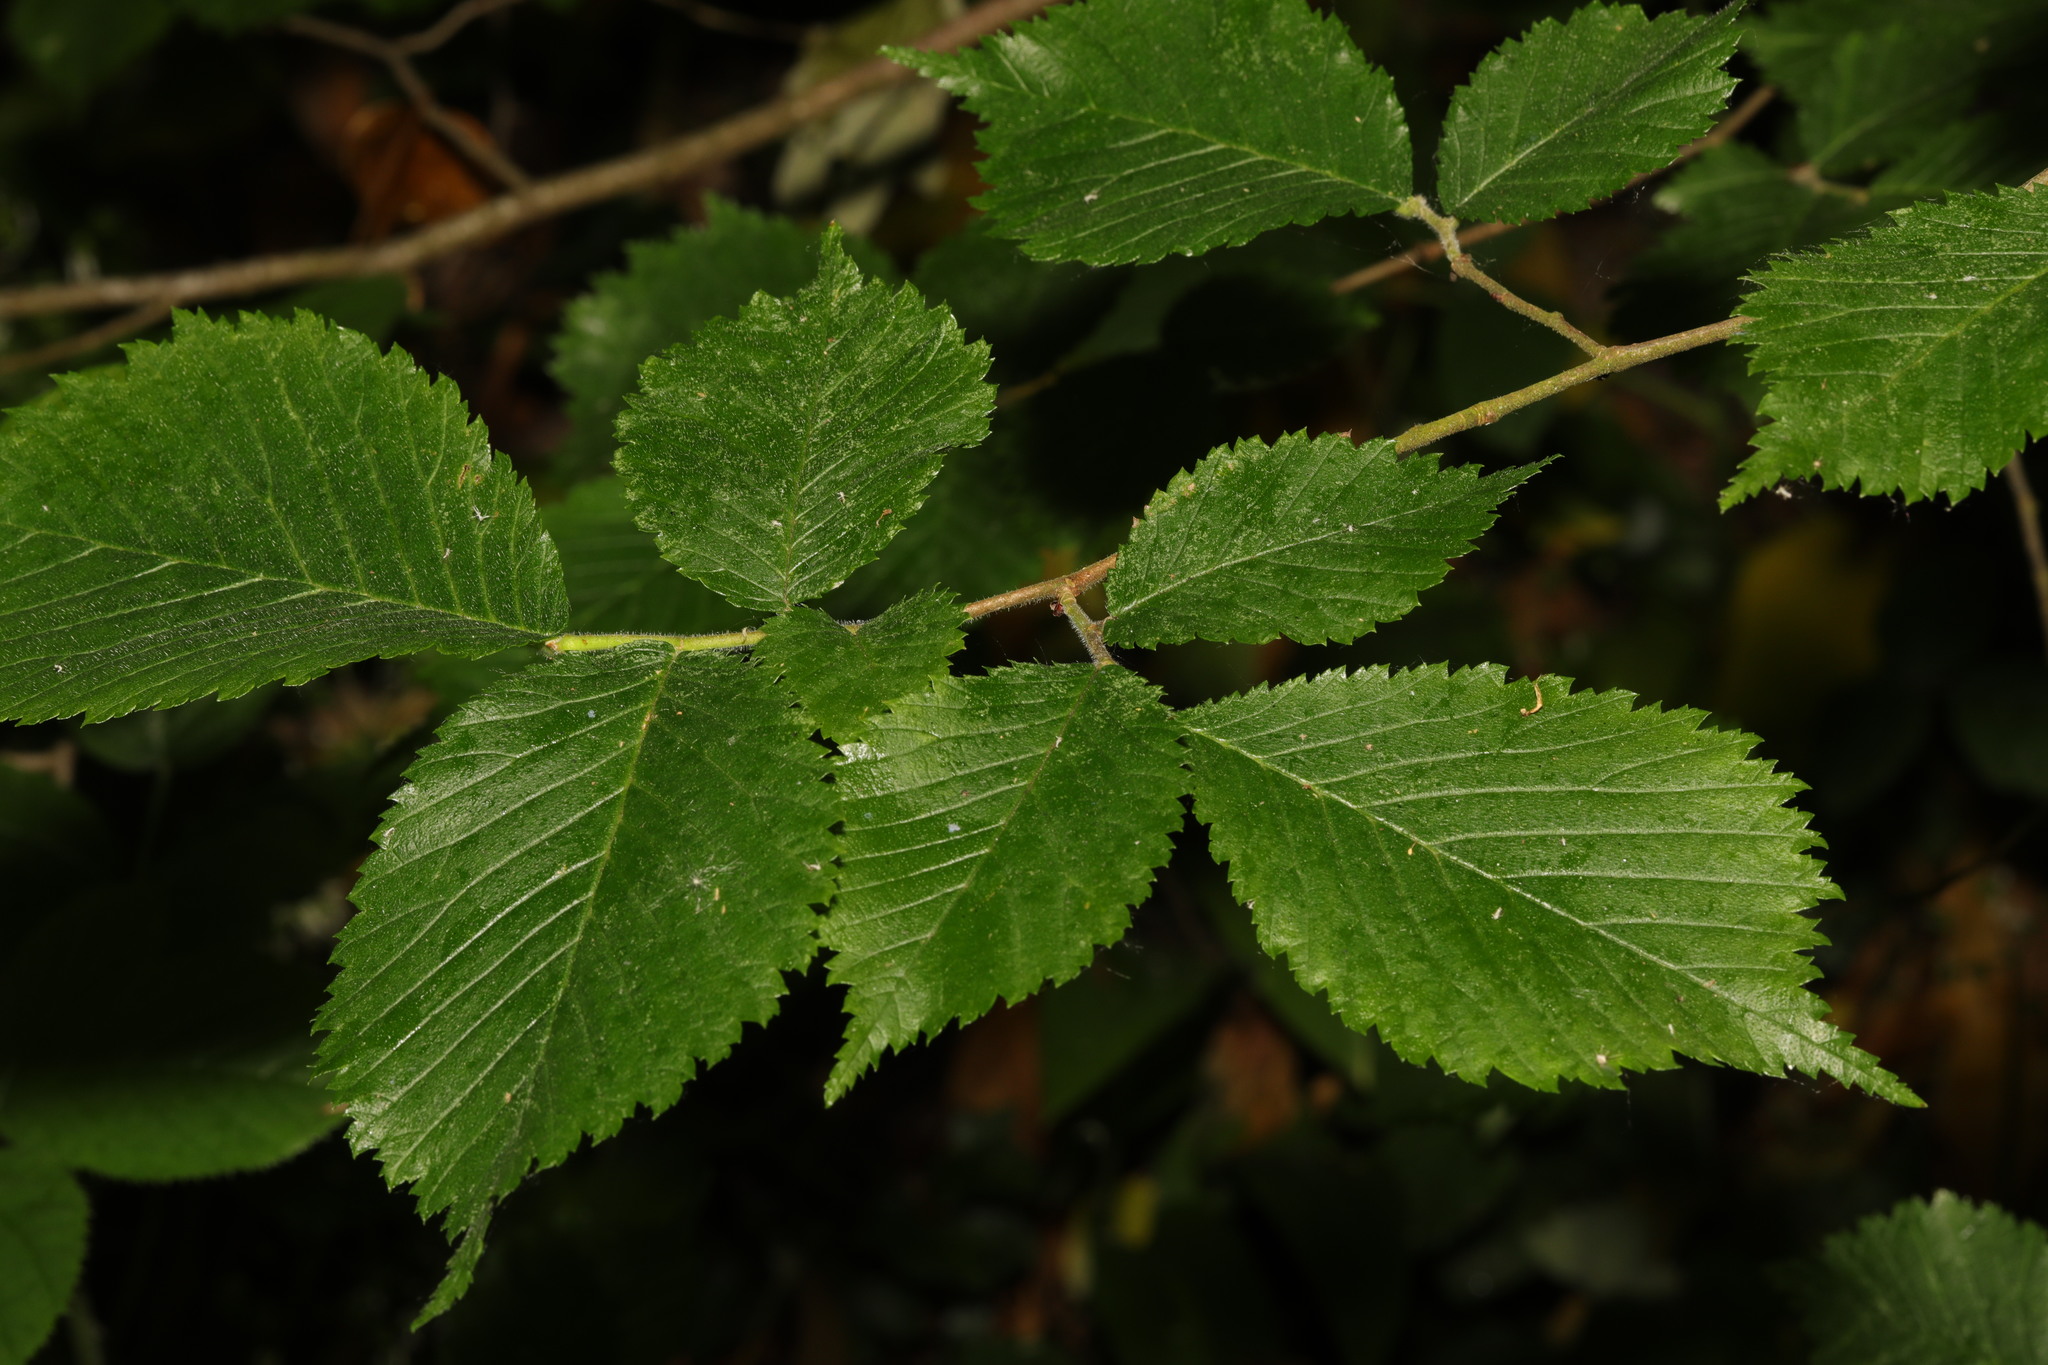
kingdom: Plantae
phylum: Tracheophyta
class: Magnoliopsida
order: Rosales
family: Ulmaceae
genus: Ulmus
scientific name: Ulmus glabra
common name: Wych elm
